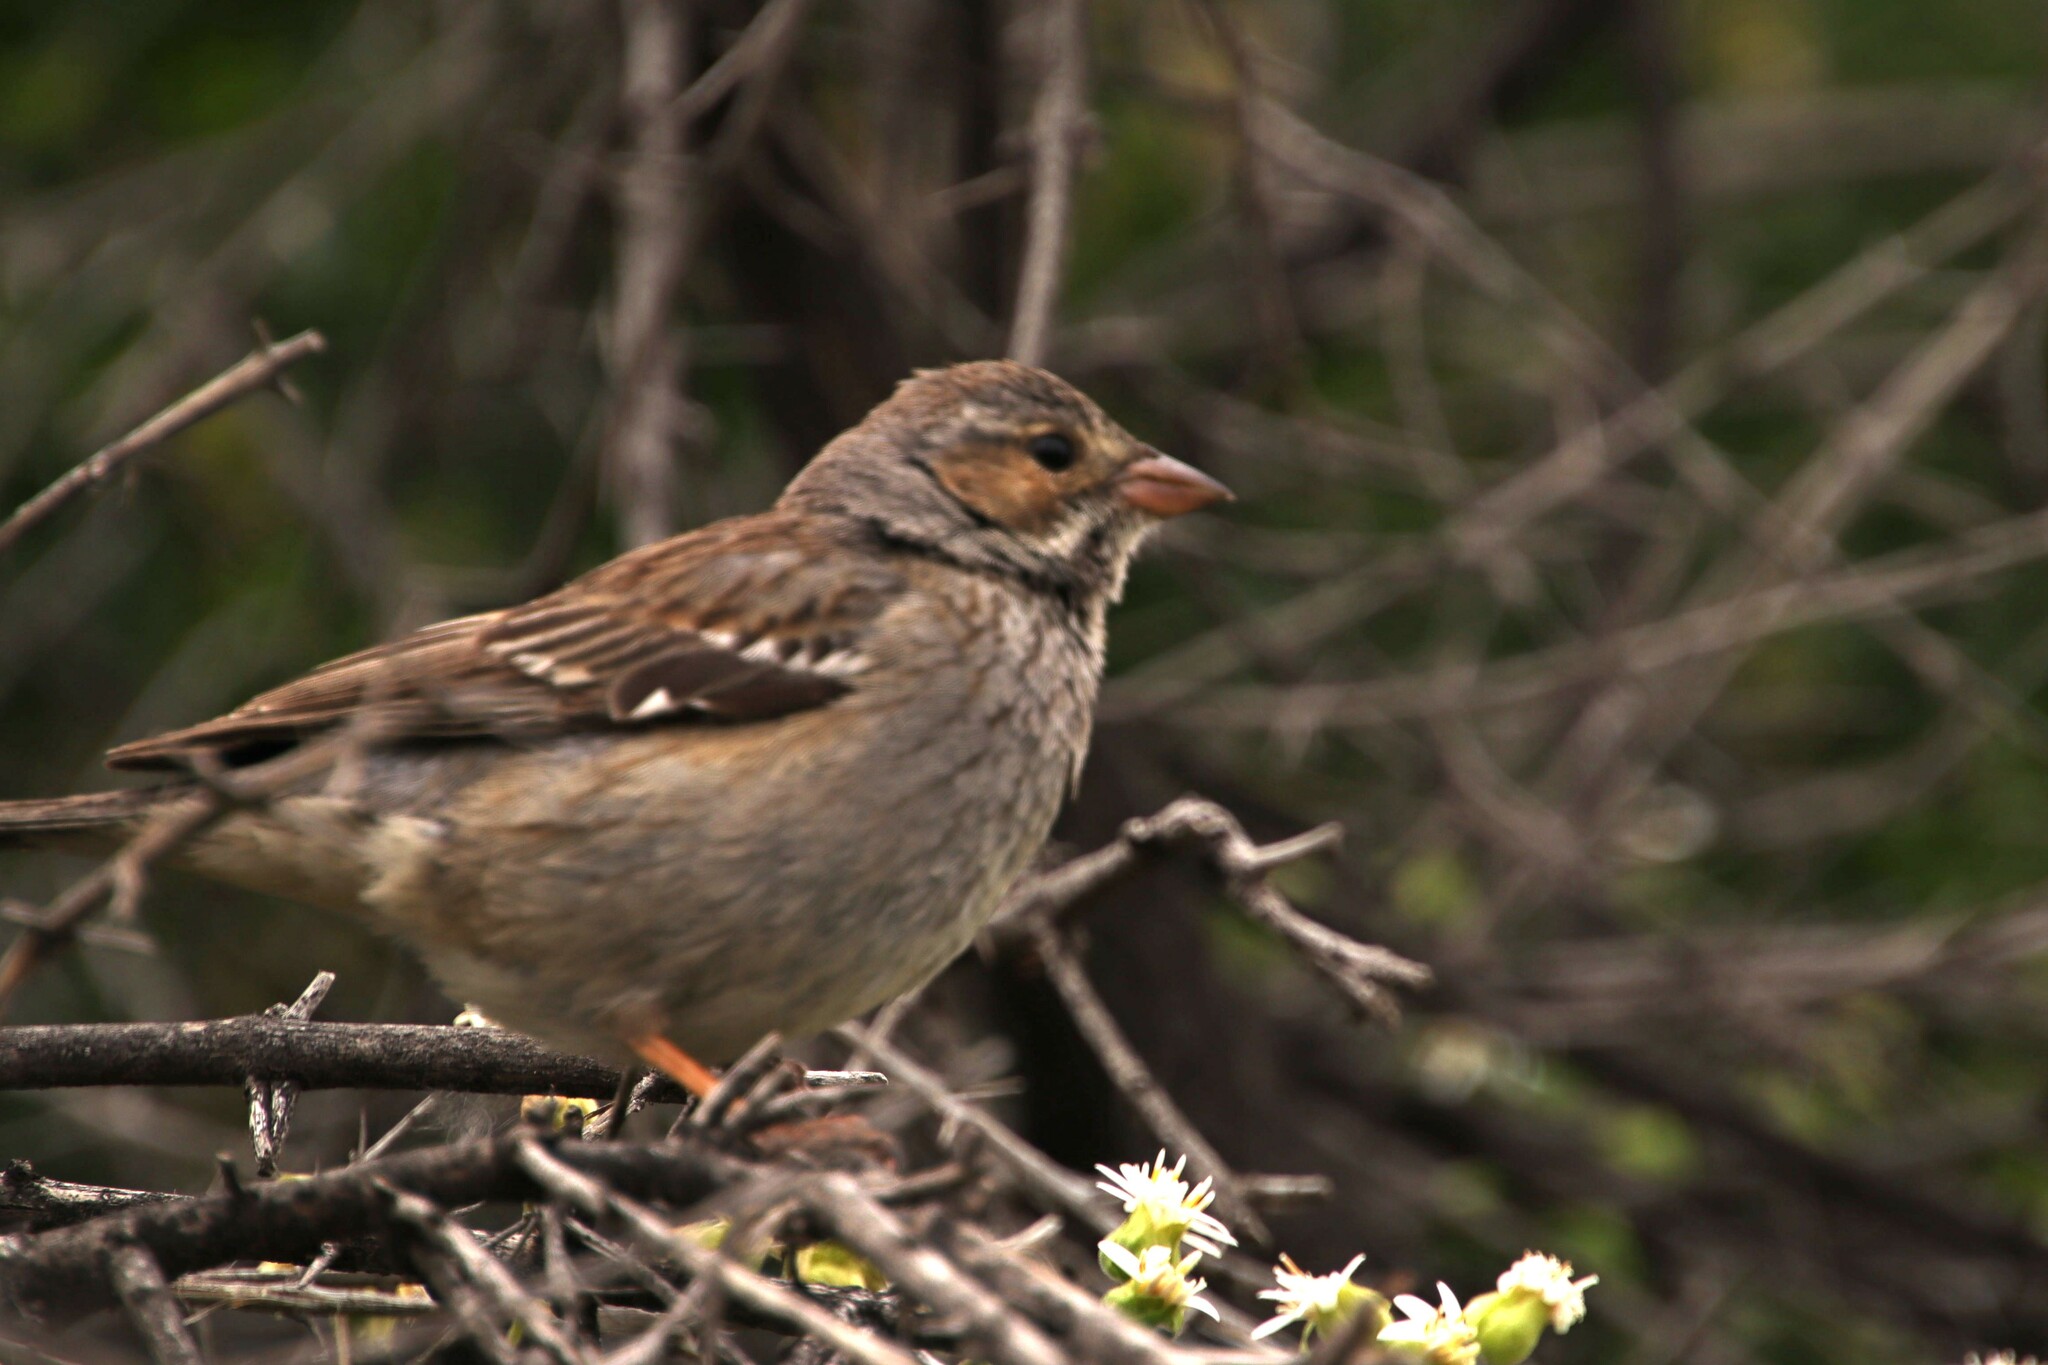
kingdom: Animalia
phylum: Chordata
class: Aves
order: Passeriformes
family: Thraupidae
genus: Rhopospina
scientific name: Rhopospina fruticeti
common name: Mourning sierra finch
